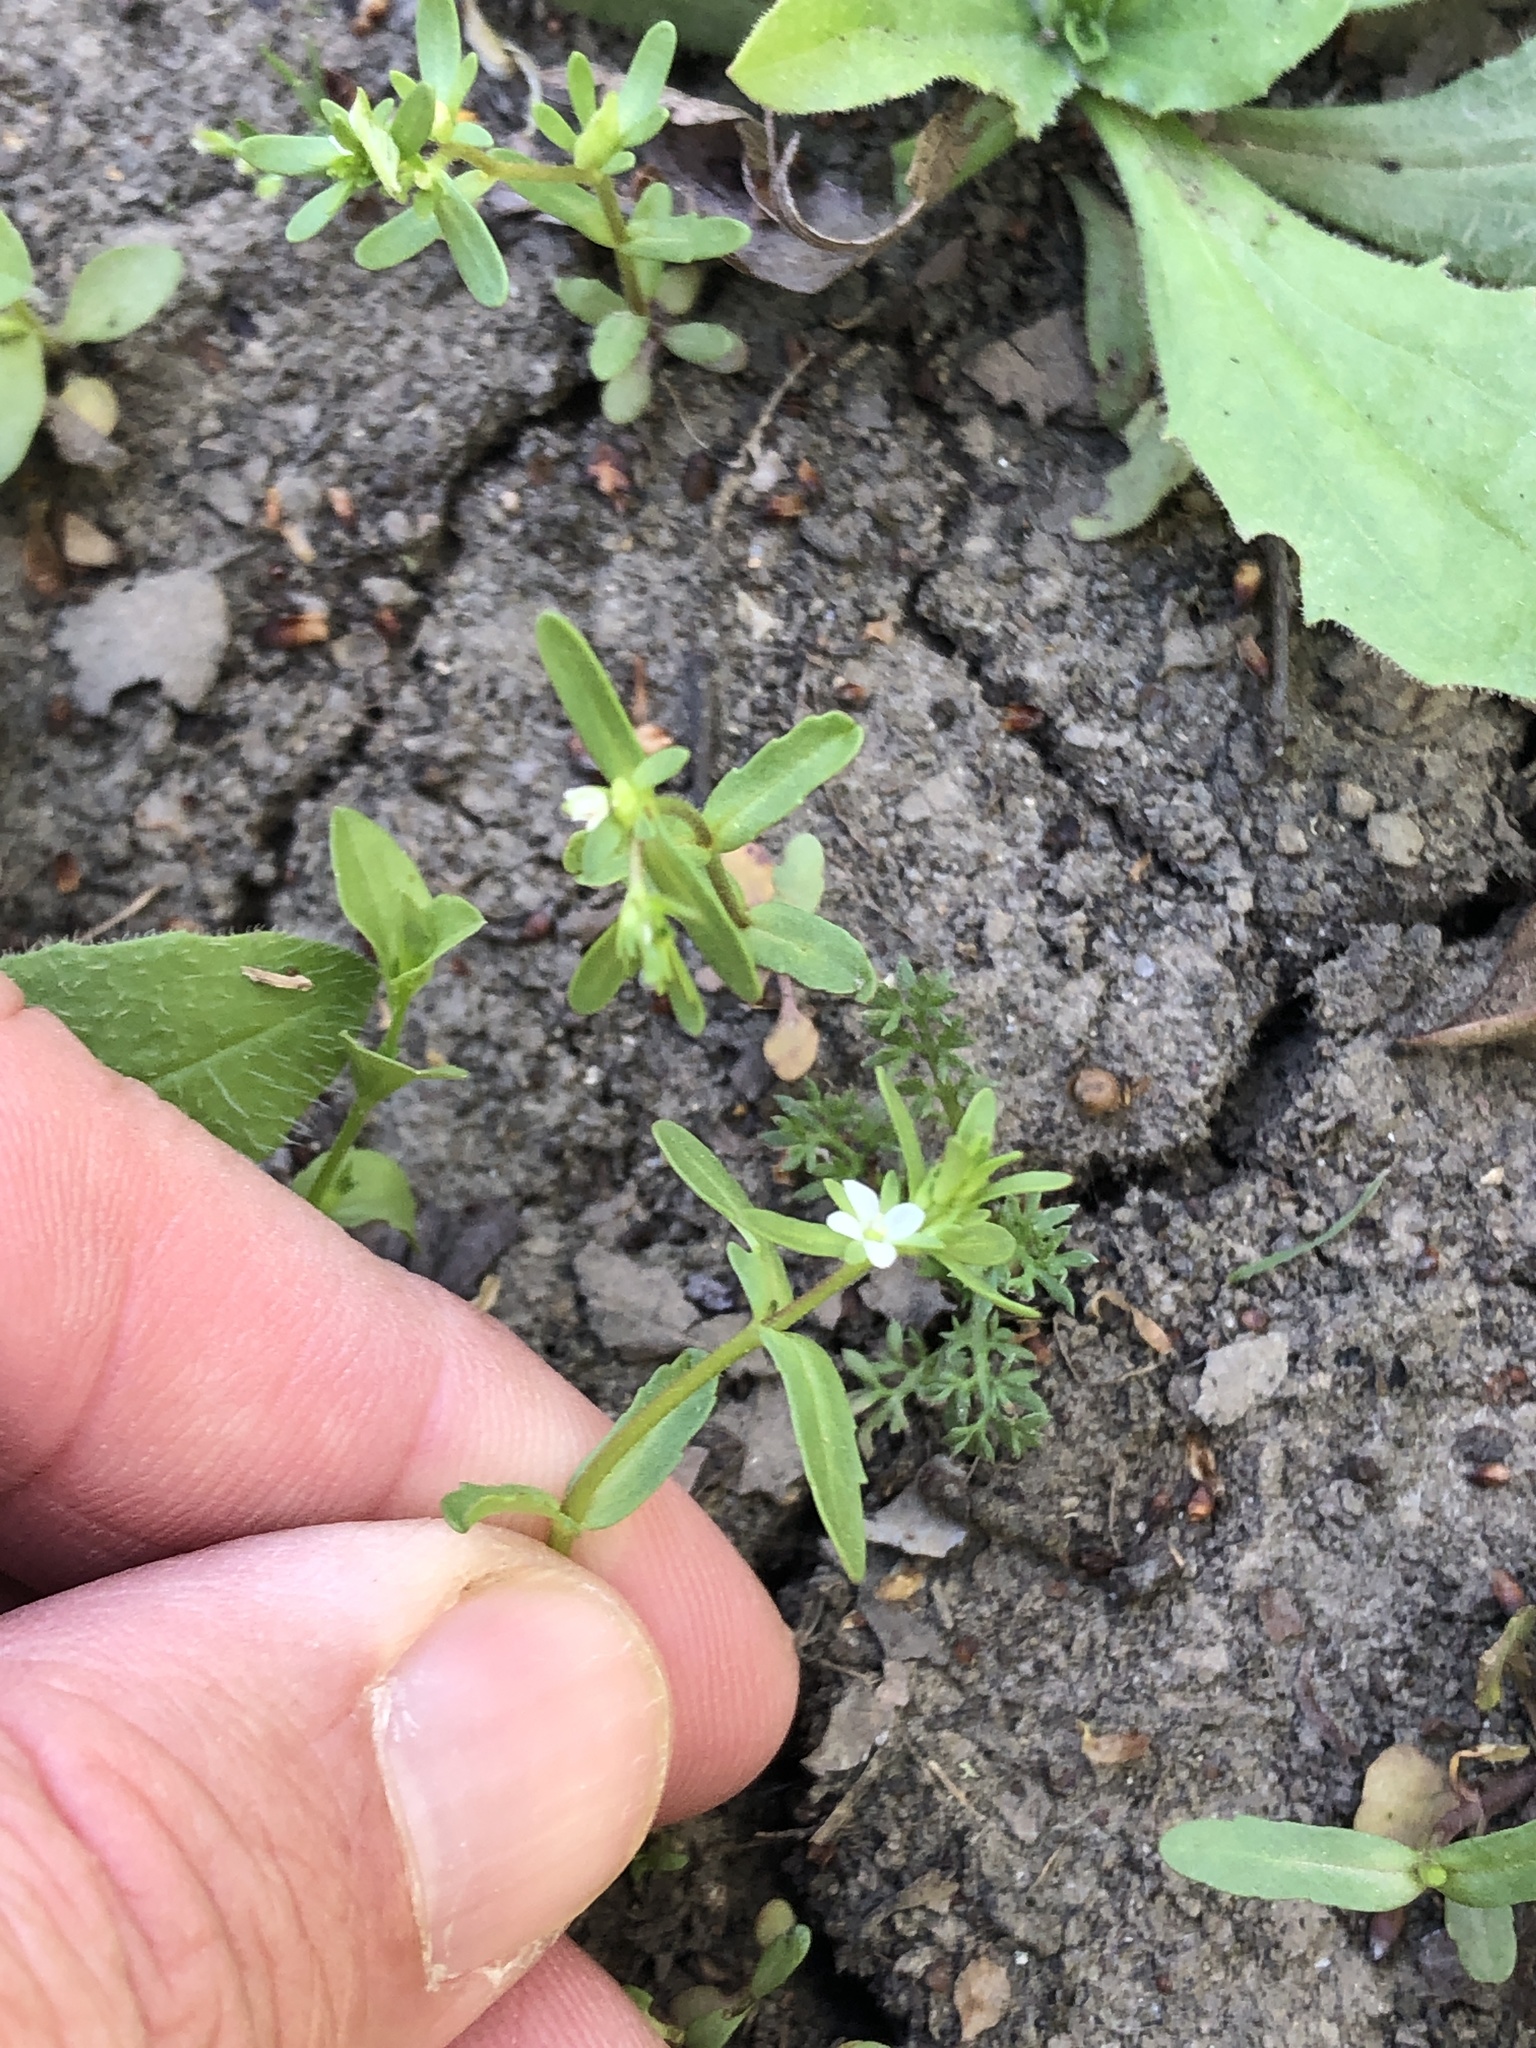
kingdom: Plantae
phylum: Tracheophyta
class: Magnoliopsida
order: Lamiales
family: Plantaginaceae
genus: Veronica
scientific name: Veronica peregrina
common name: Neckweed
